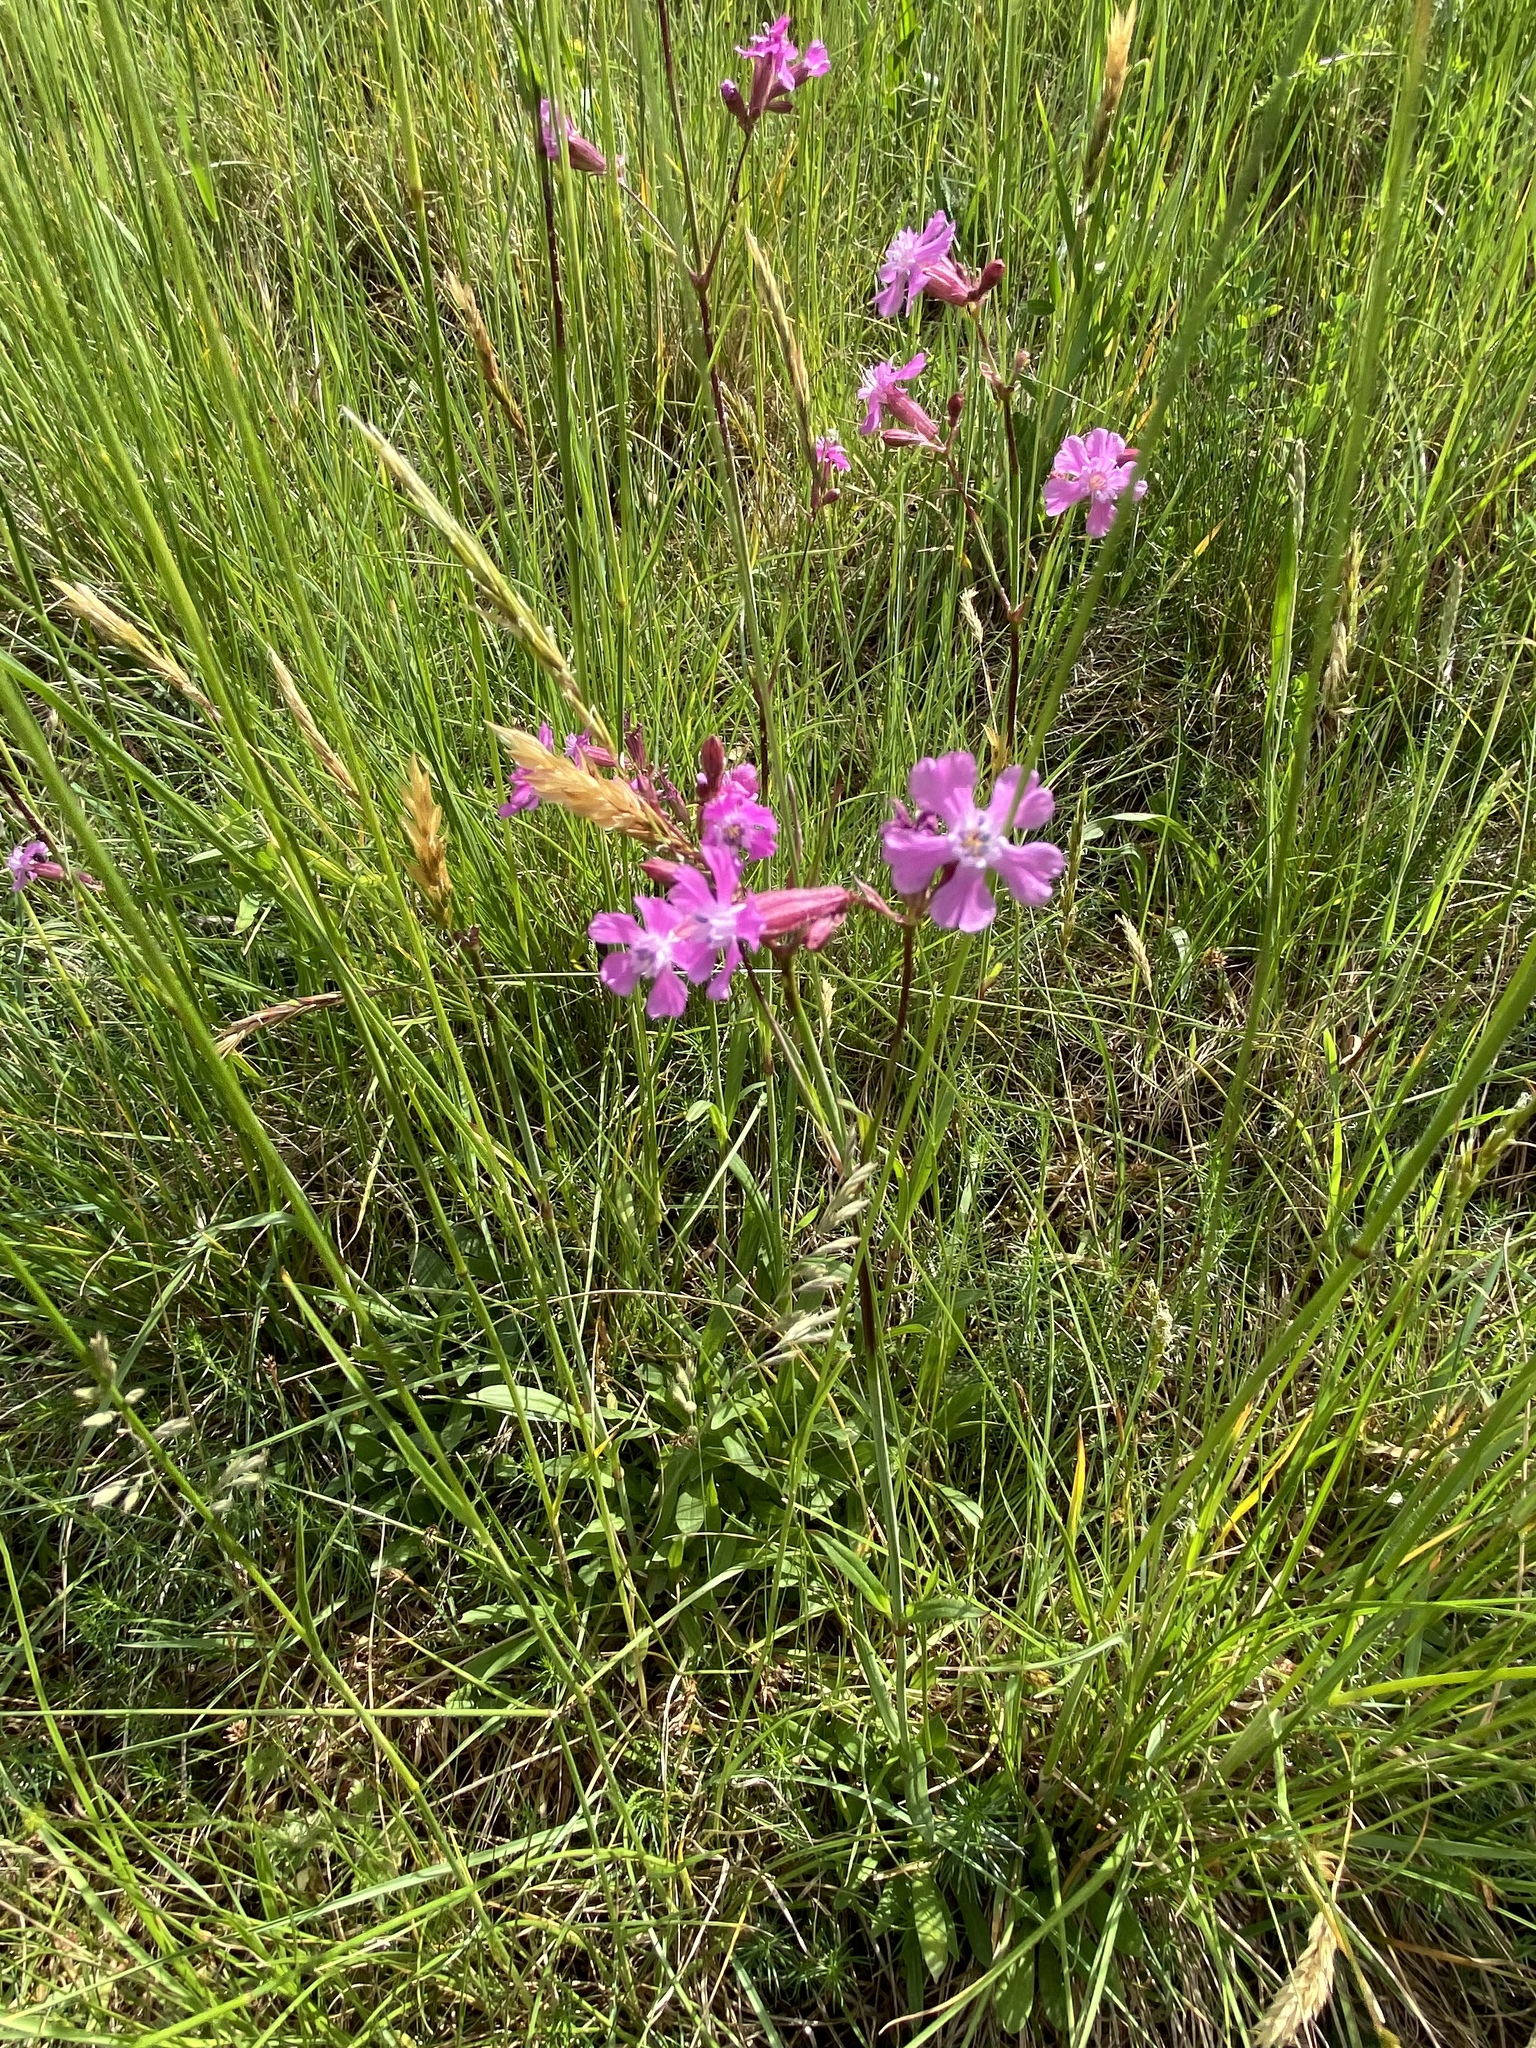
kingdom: Plantae
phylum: Tracheophyta
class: Magnoliopsida
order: Caryophyllales
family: Caryophyllaceae
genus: Silene
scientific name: Silene dioica
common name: Red campion
